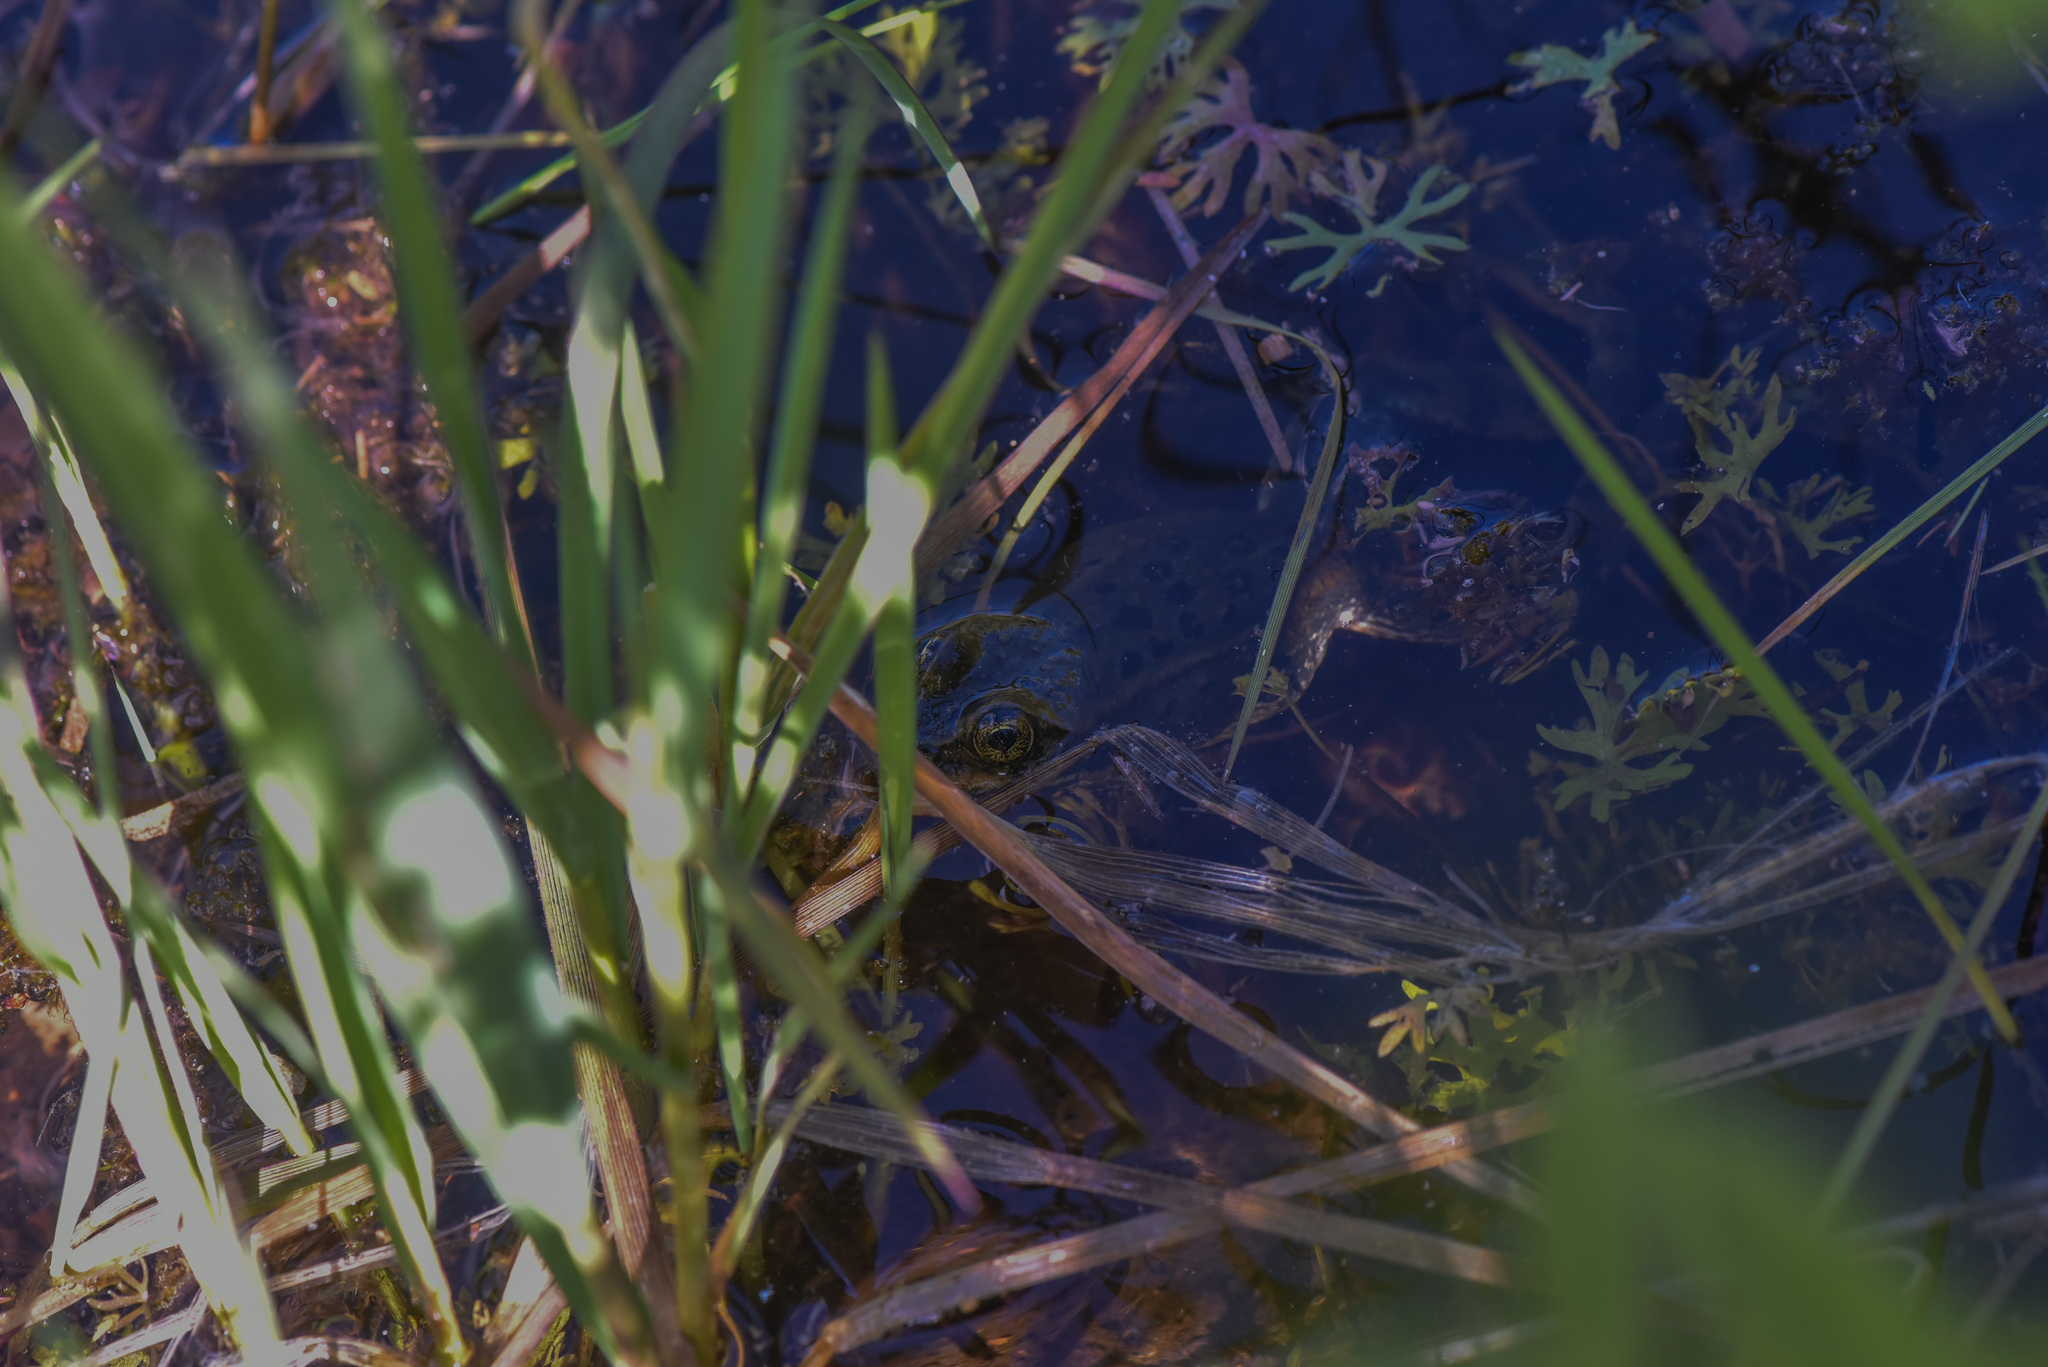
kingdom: Animalia
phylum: Chordata
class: Amphibia
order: Anura
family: Ranidae
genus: Rana
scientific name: Rana luteiventris
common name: Columbia spotted frog
